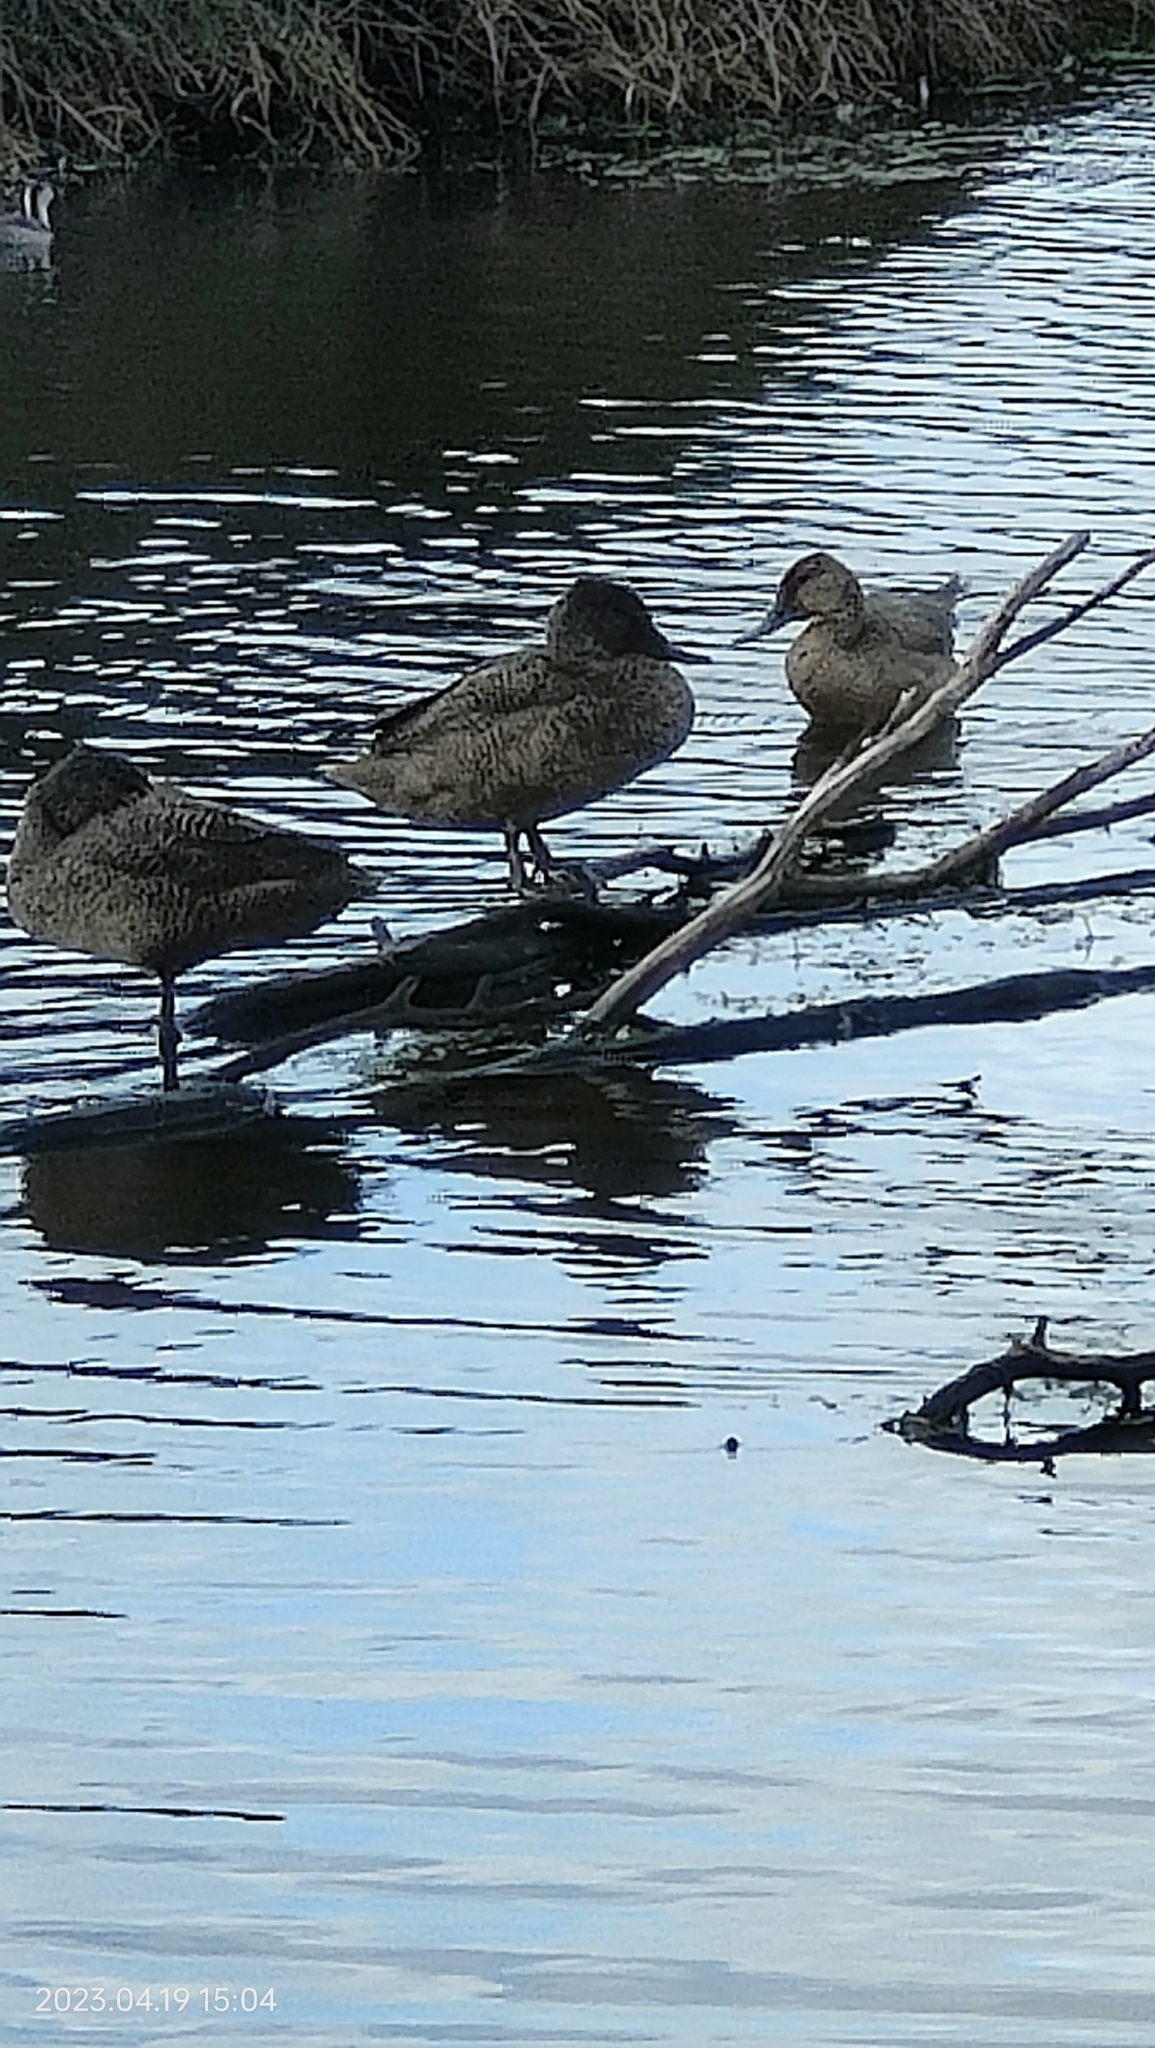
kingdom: Animalia
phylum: Chordata
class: Aves
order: Anseriformes
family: Anatidae
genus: Stictonetta
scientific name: Stictonetta naevosa
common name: Freckled duck
